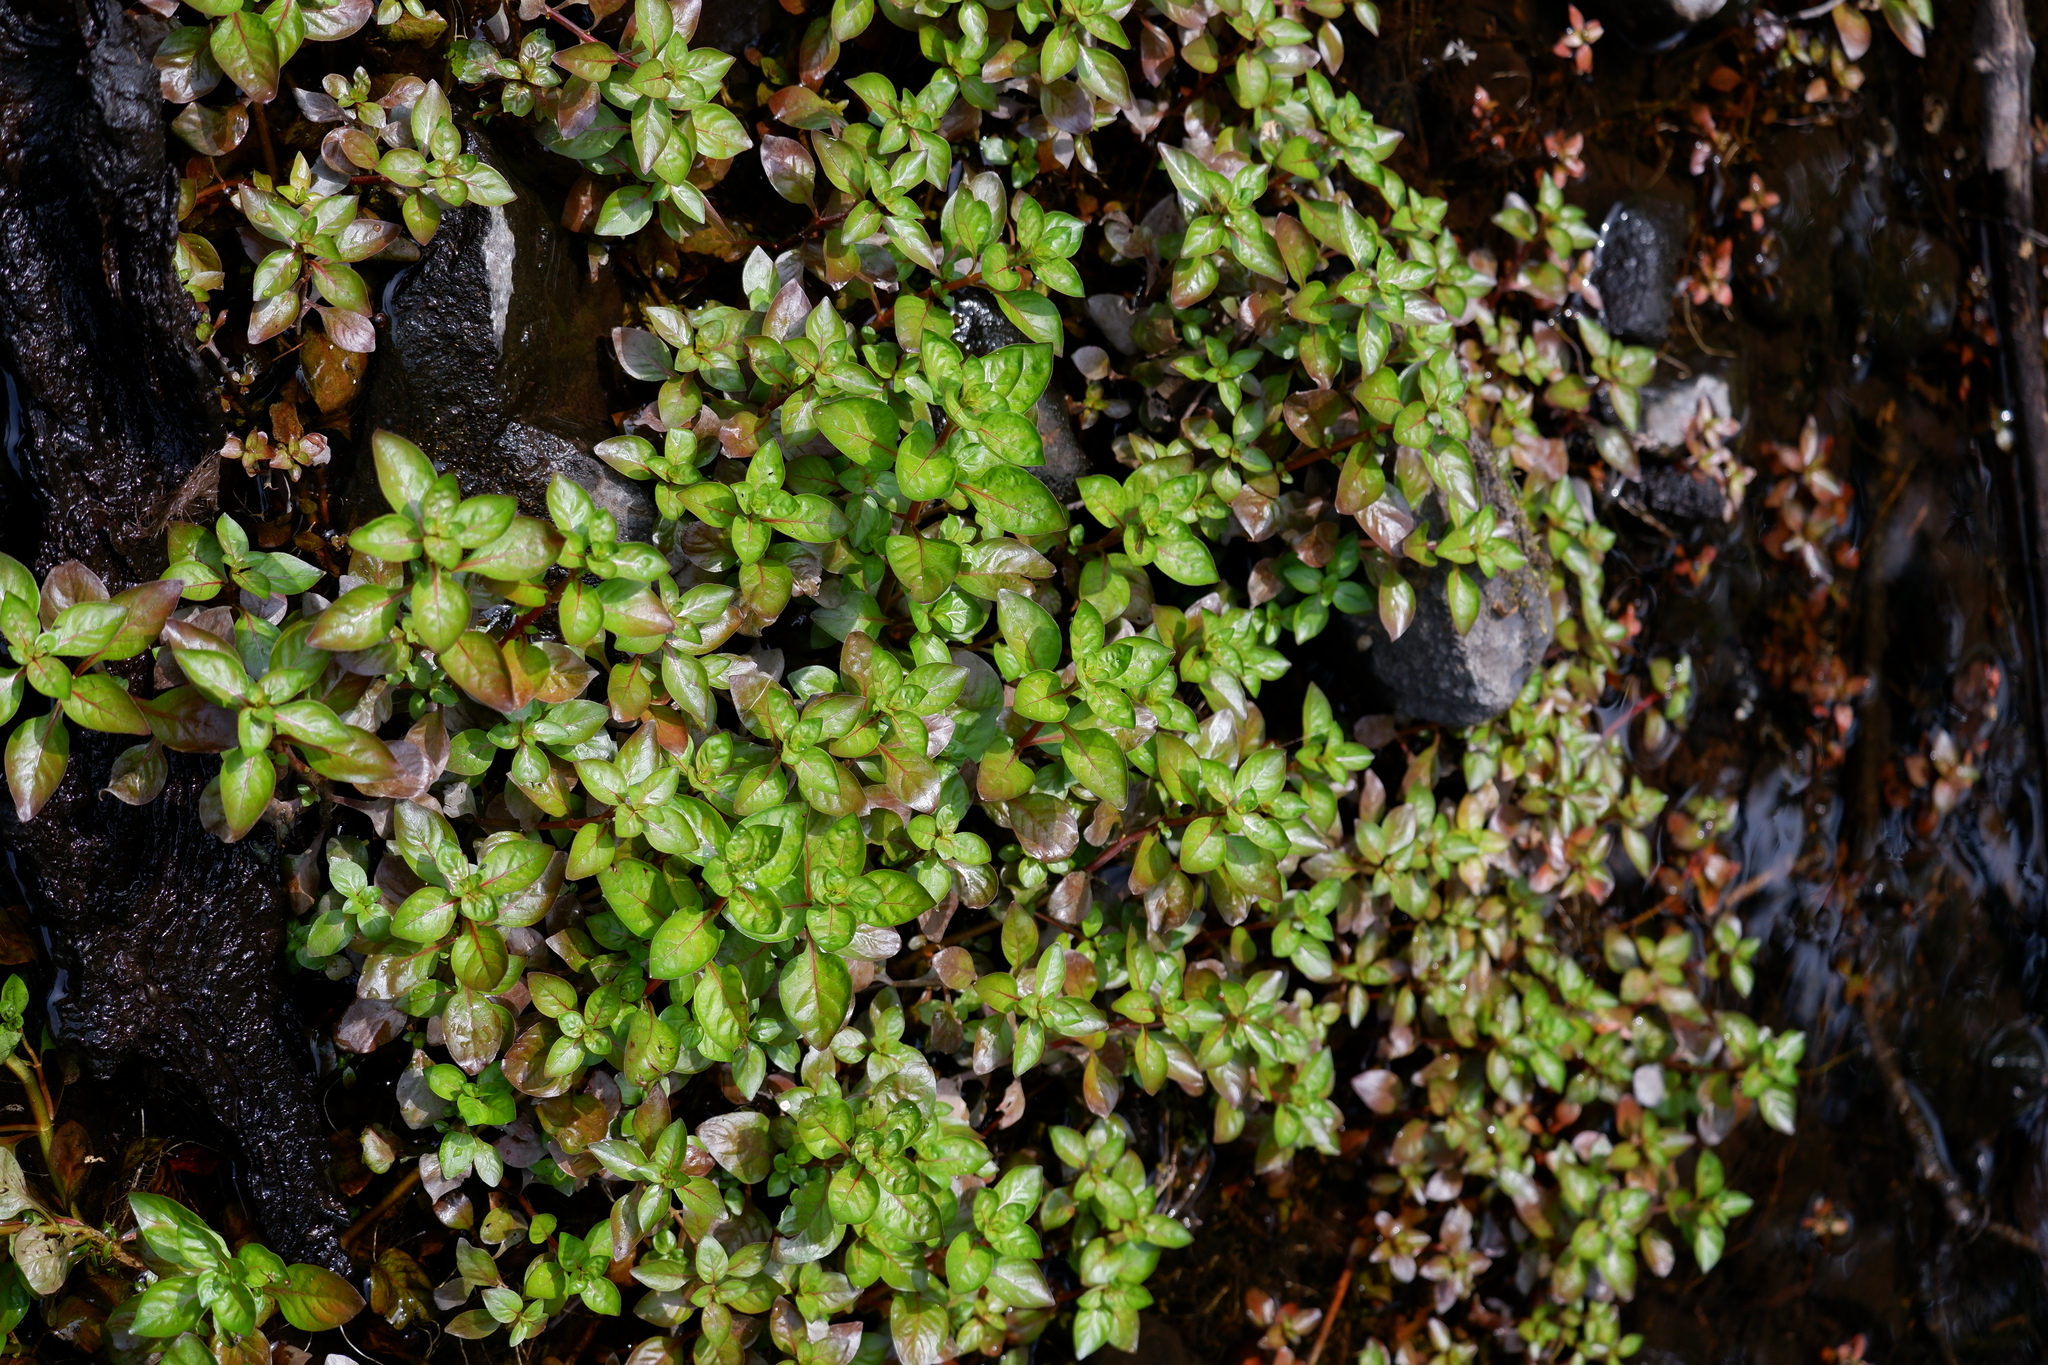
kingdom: Plantae
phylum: Tracheophyta
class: Magnoliopsida
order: Myrtales
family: Onagraceae
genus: Ludwigia
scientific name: Ludwigia palustris
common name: Hampshire-purslane
